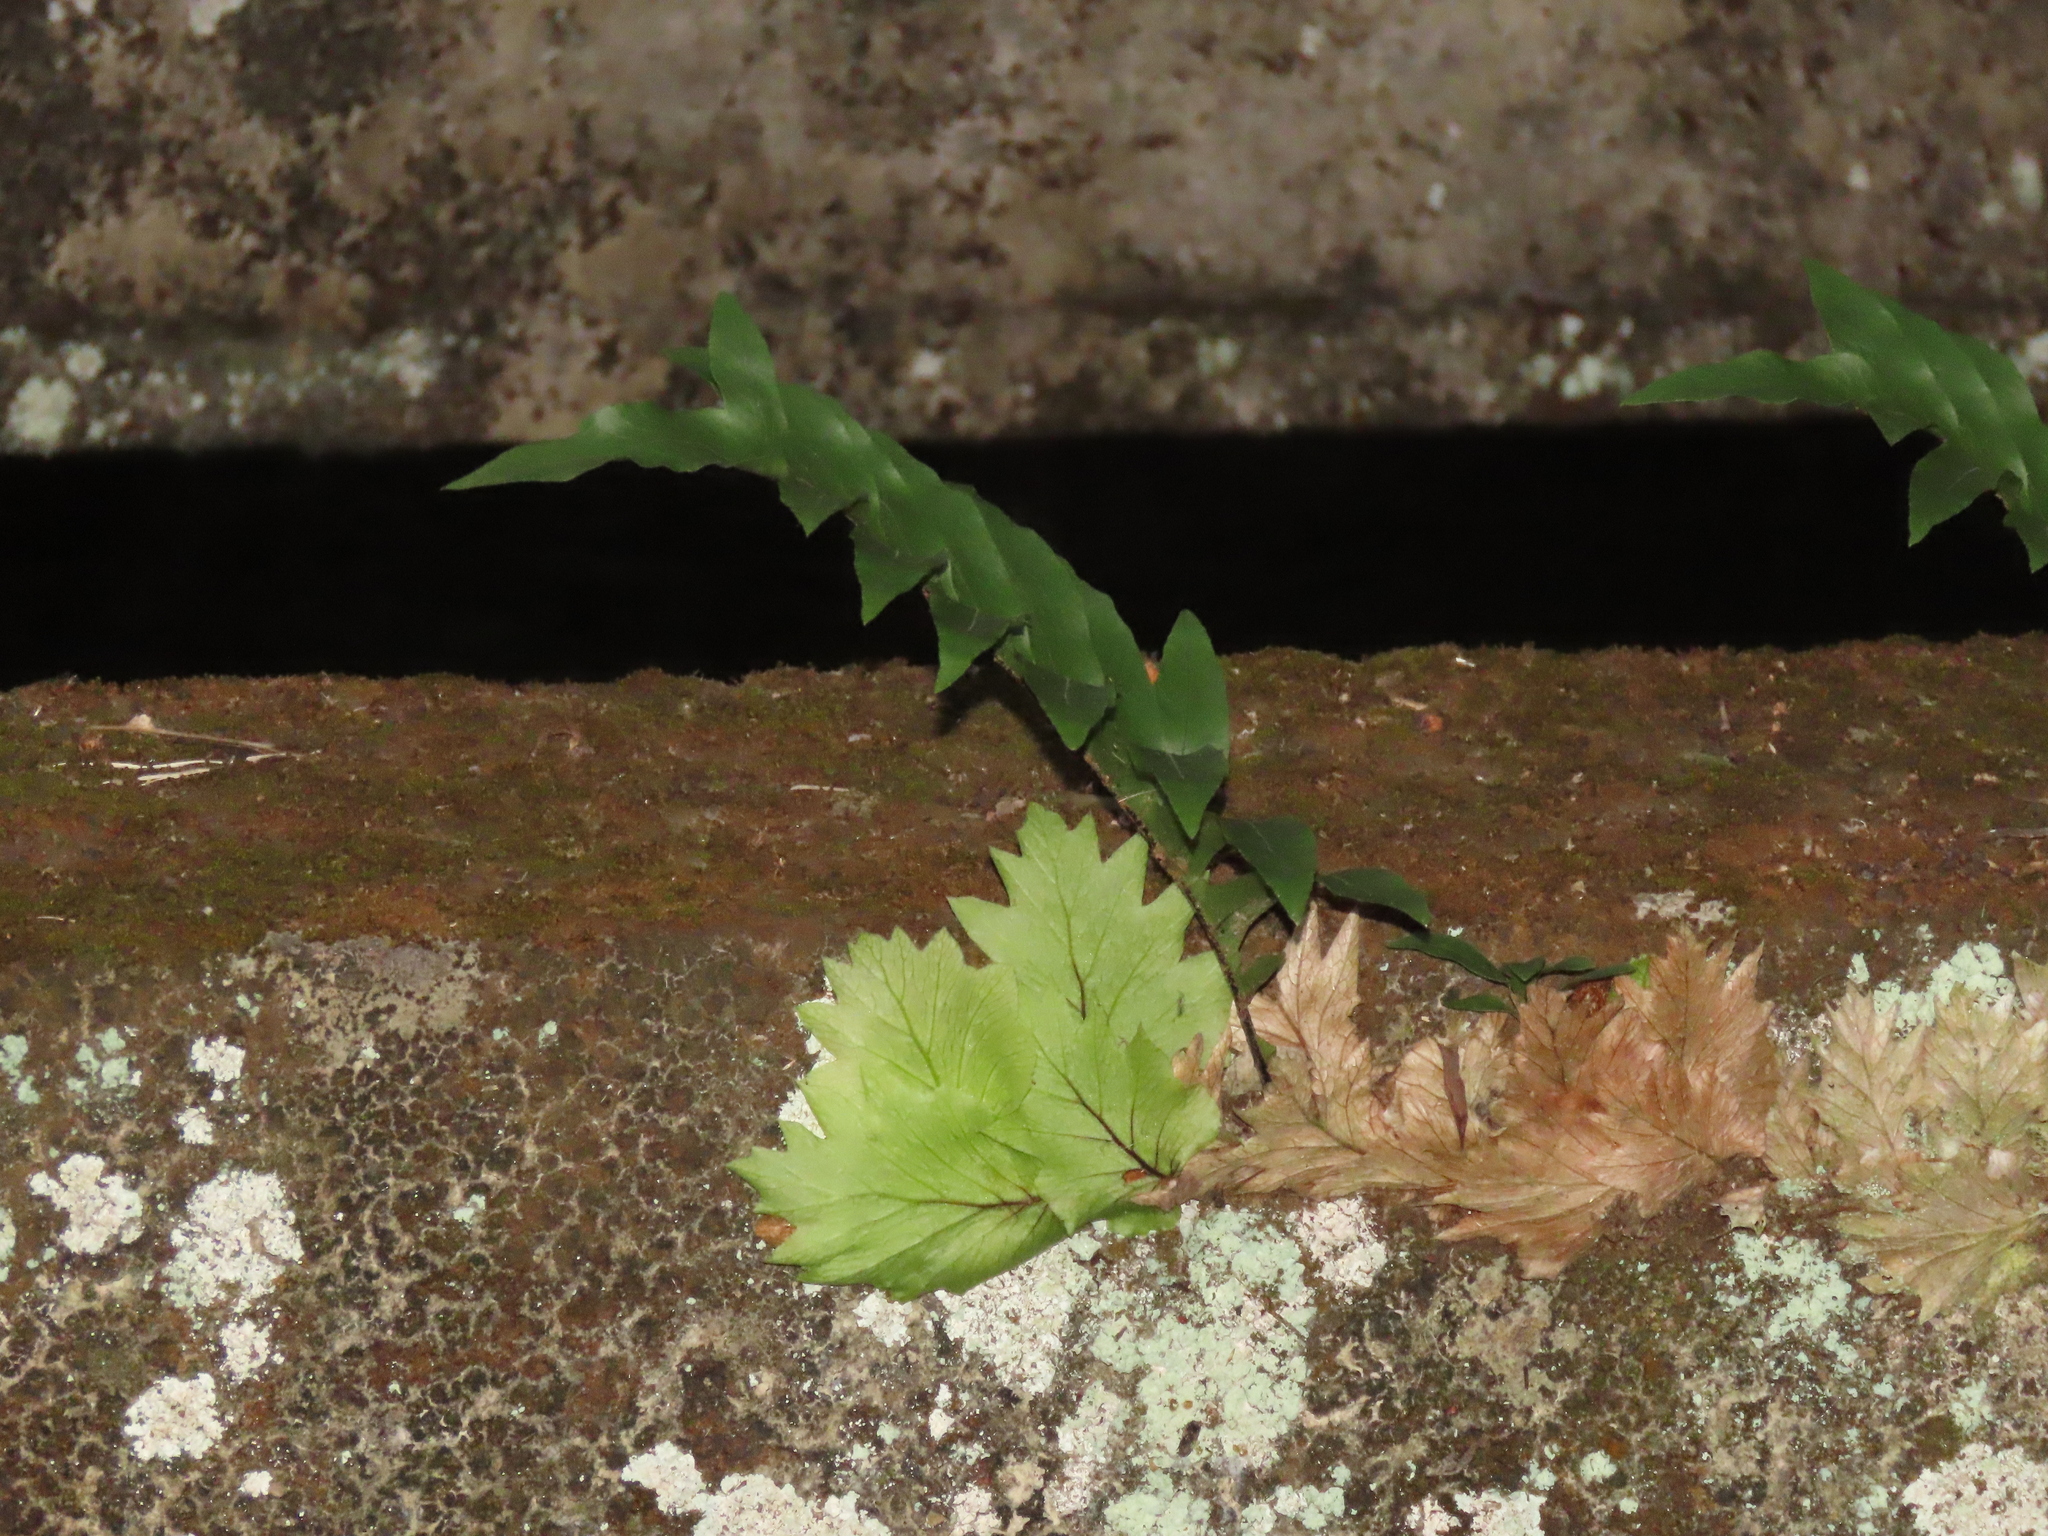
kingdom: Plantae
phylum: Tracheophyta
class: Polypodiopsida
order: Polypodiales
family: Polypodiaceae
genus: Drynaria
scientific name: Drynaria roosii
